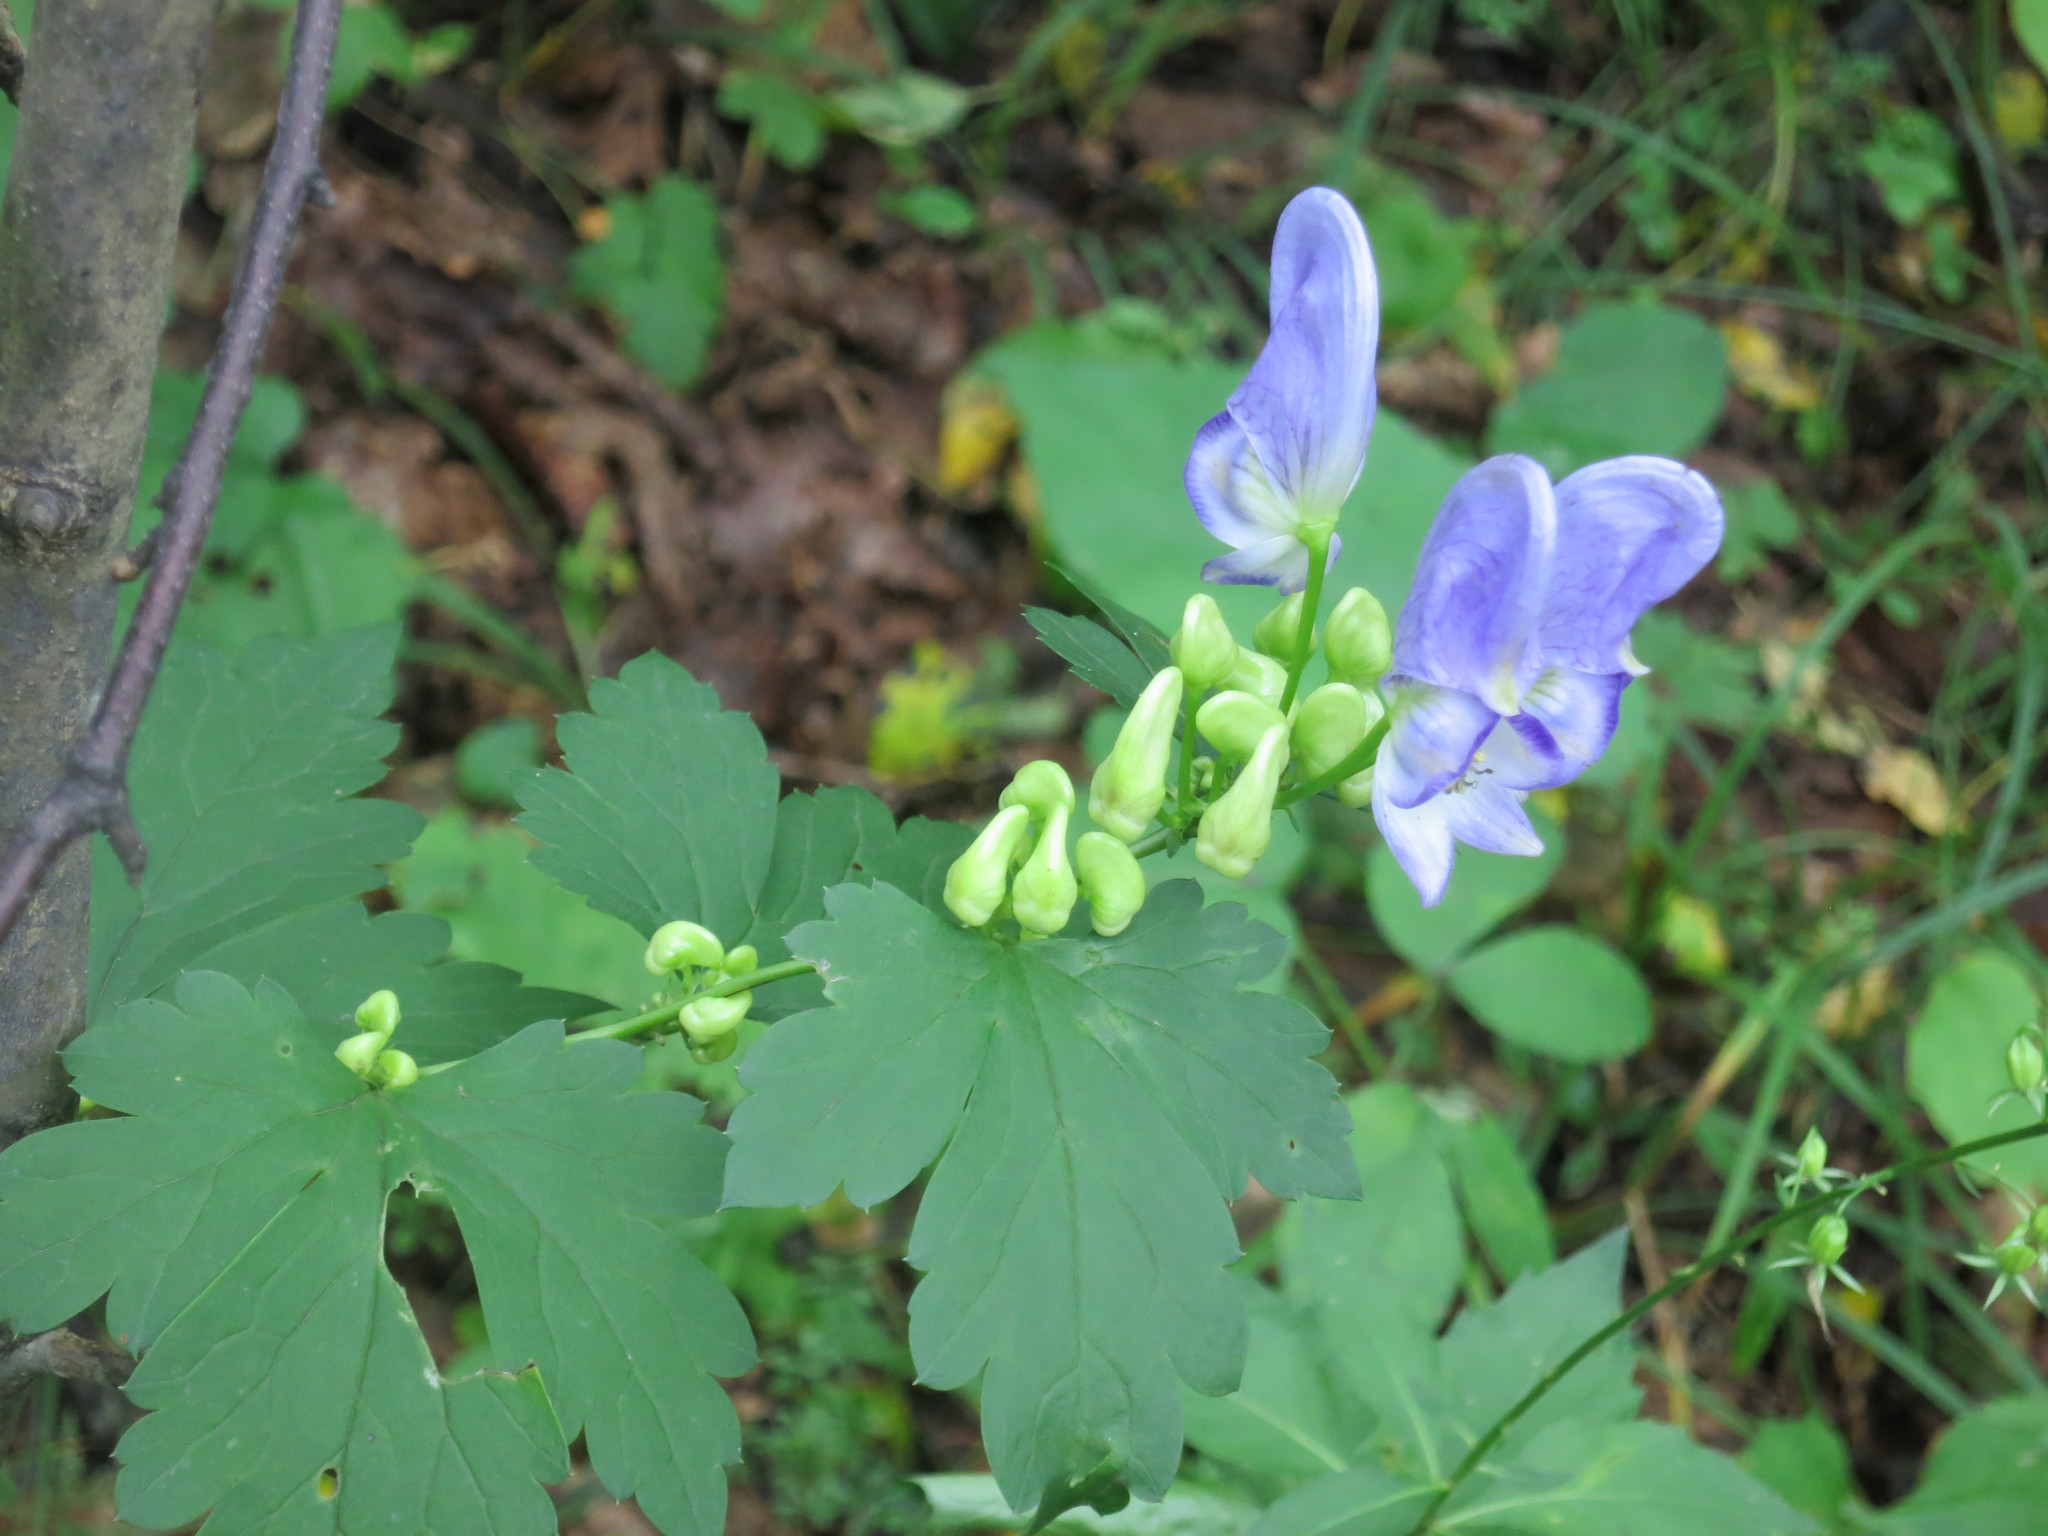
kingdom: Plantae
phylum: Tracheophyta
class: Magnoliopsida
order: Ranunculales
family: Ranunculaceae
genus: Aconitum
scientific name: Aconitum sczukinii
